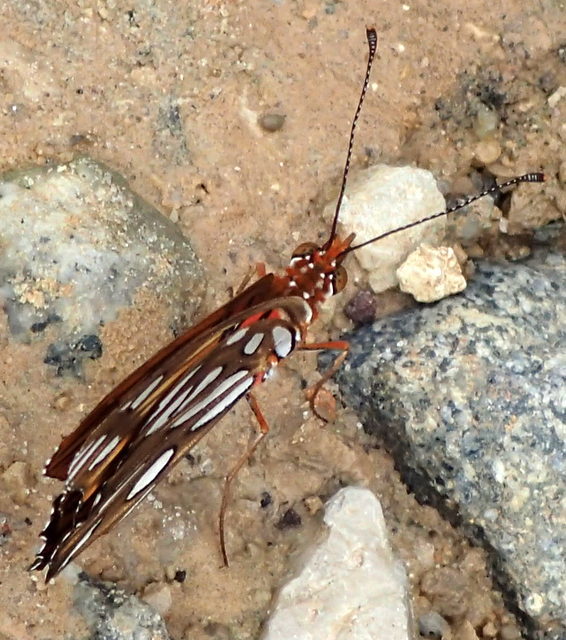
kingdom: Animalia
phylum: Arthropoda
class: Insecta
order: Lepidoptera
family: Nymphalidae
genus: Dione
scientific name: Dione vanillae
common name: Gulf fritillary
